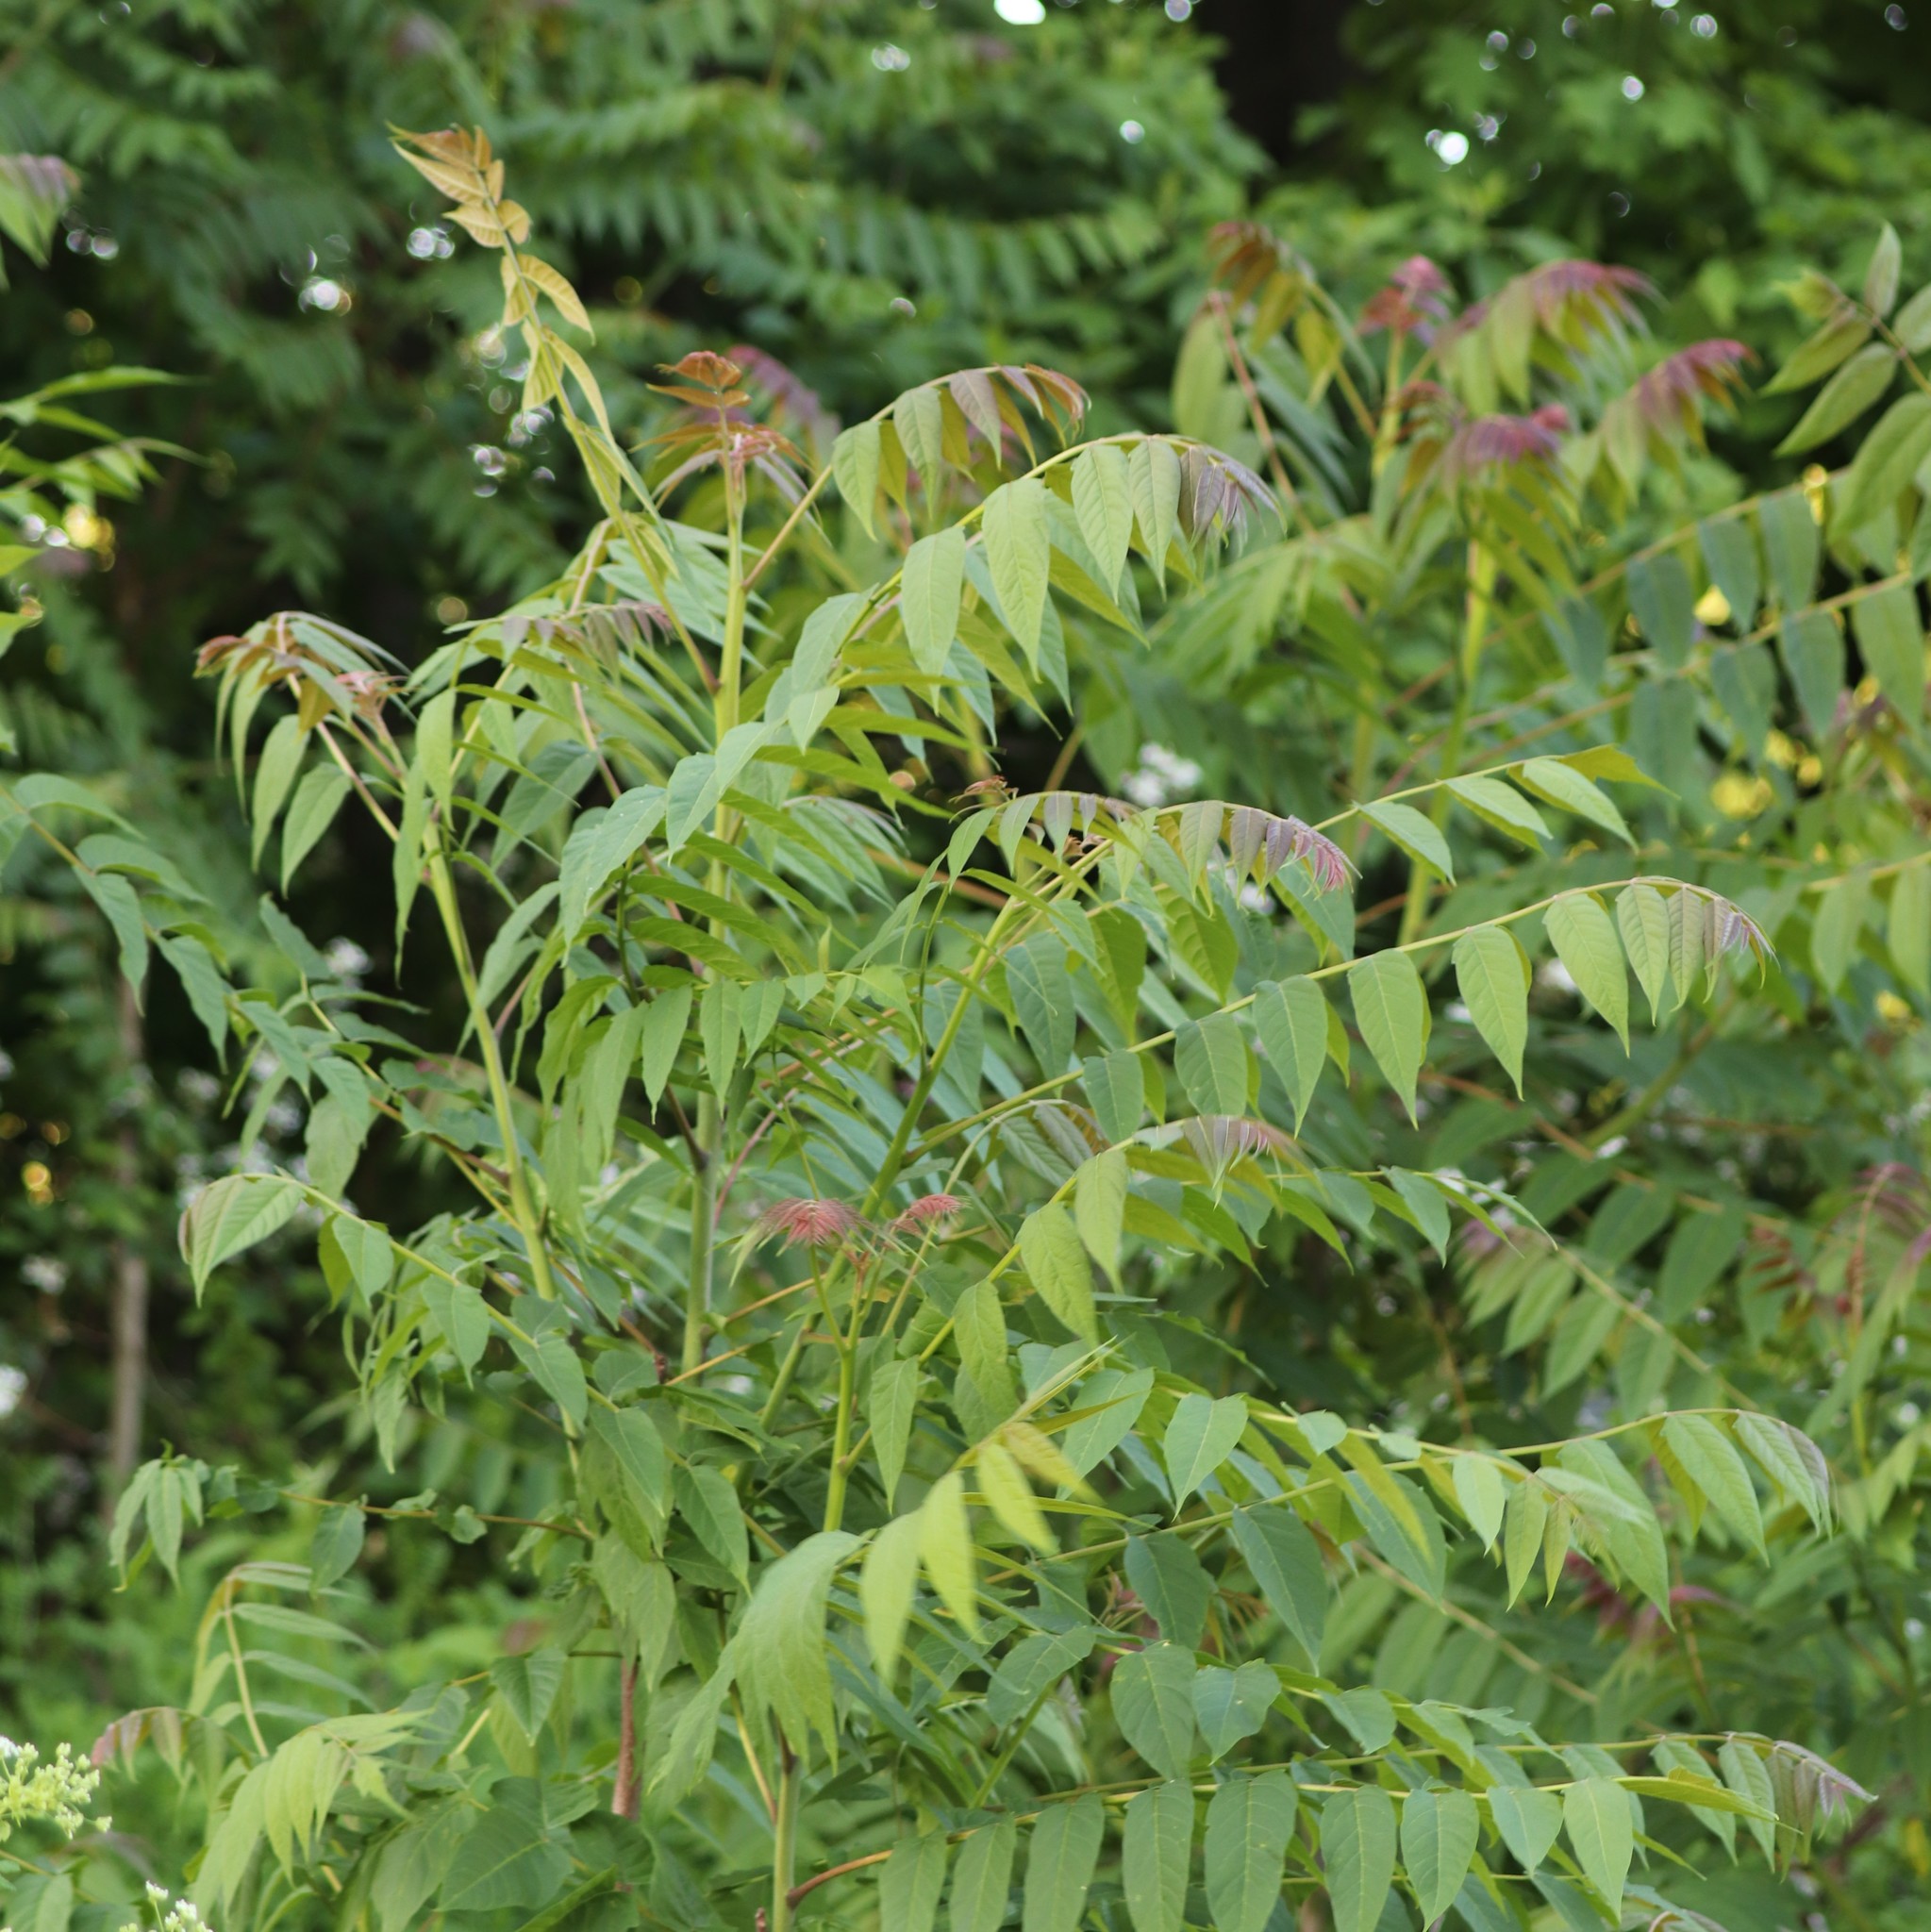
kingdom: Plantae
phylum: Tracheophyta
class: Magnoliopsida
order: Sapindales
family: Simaroubaceae
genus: Ailanthus
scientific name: Ailanthus altissima
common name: Tree-of-heaven
